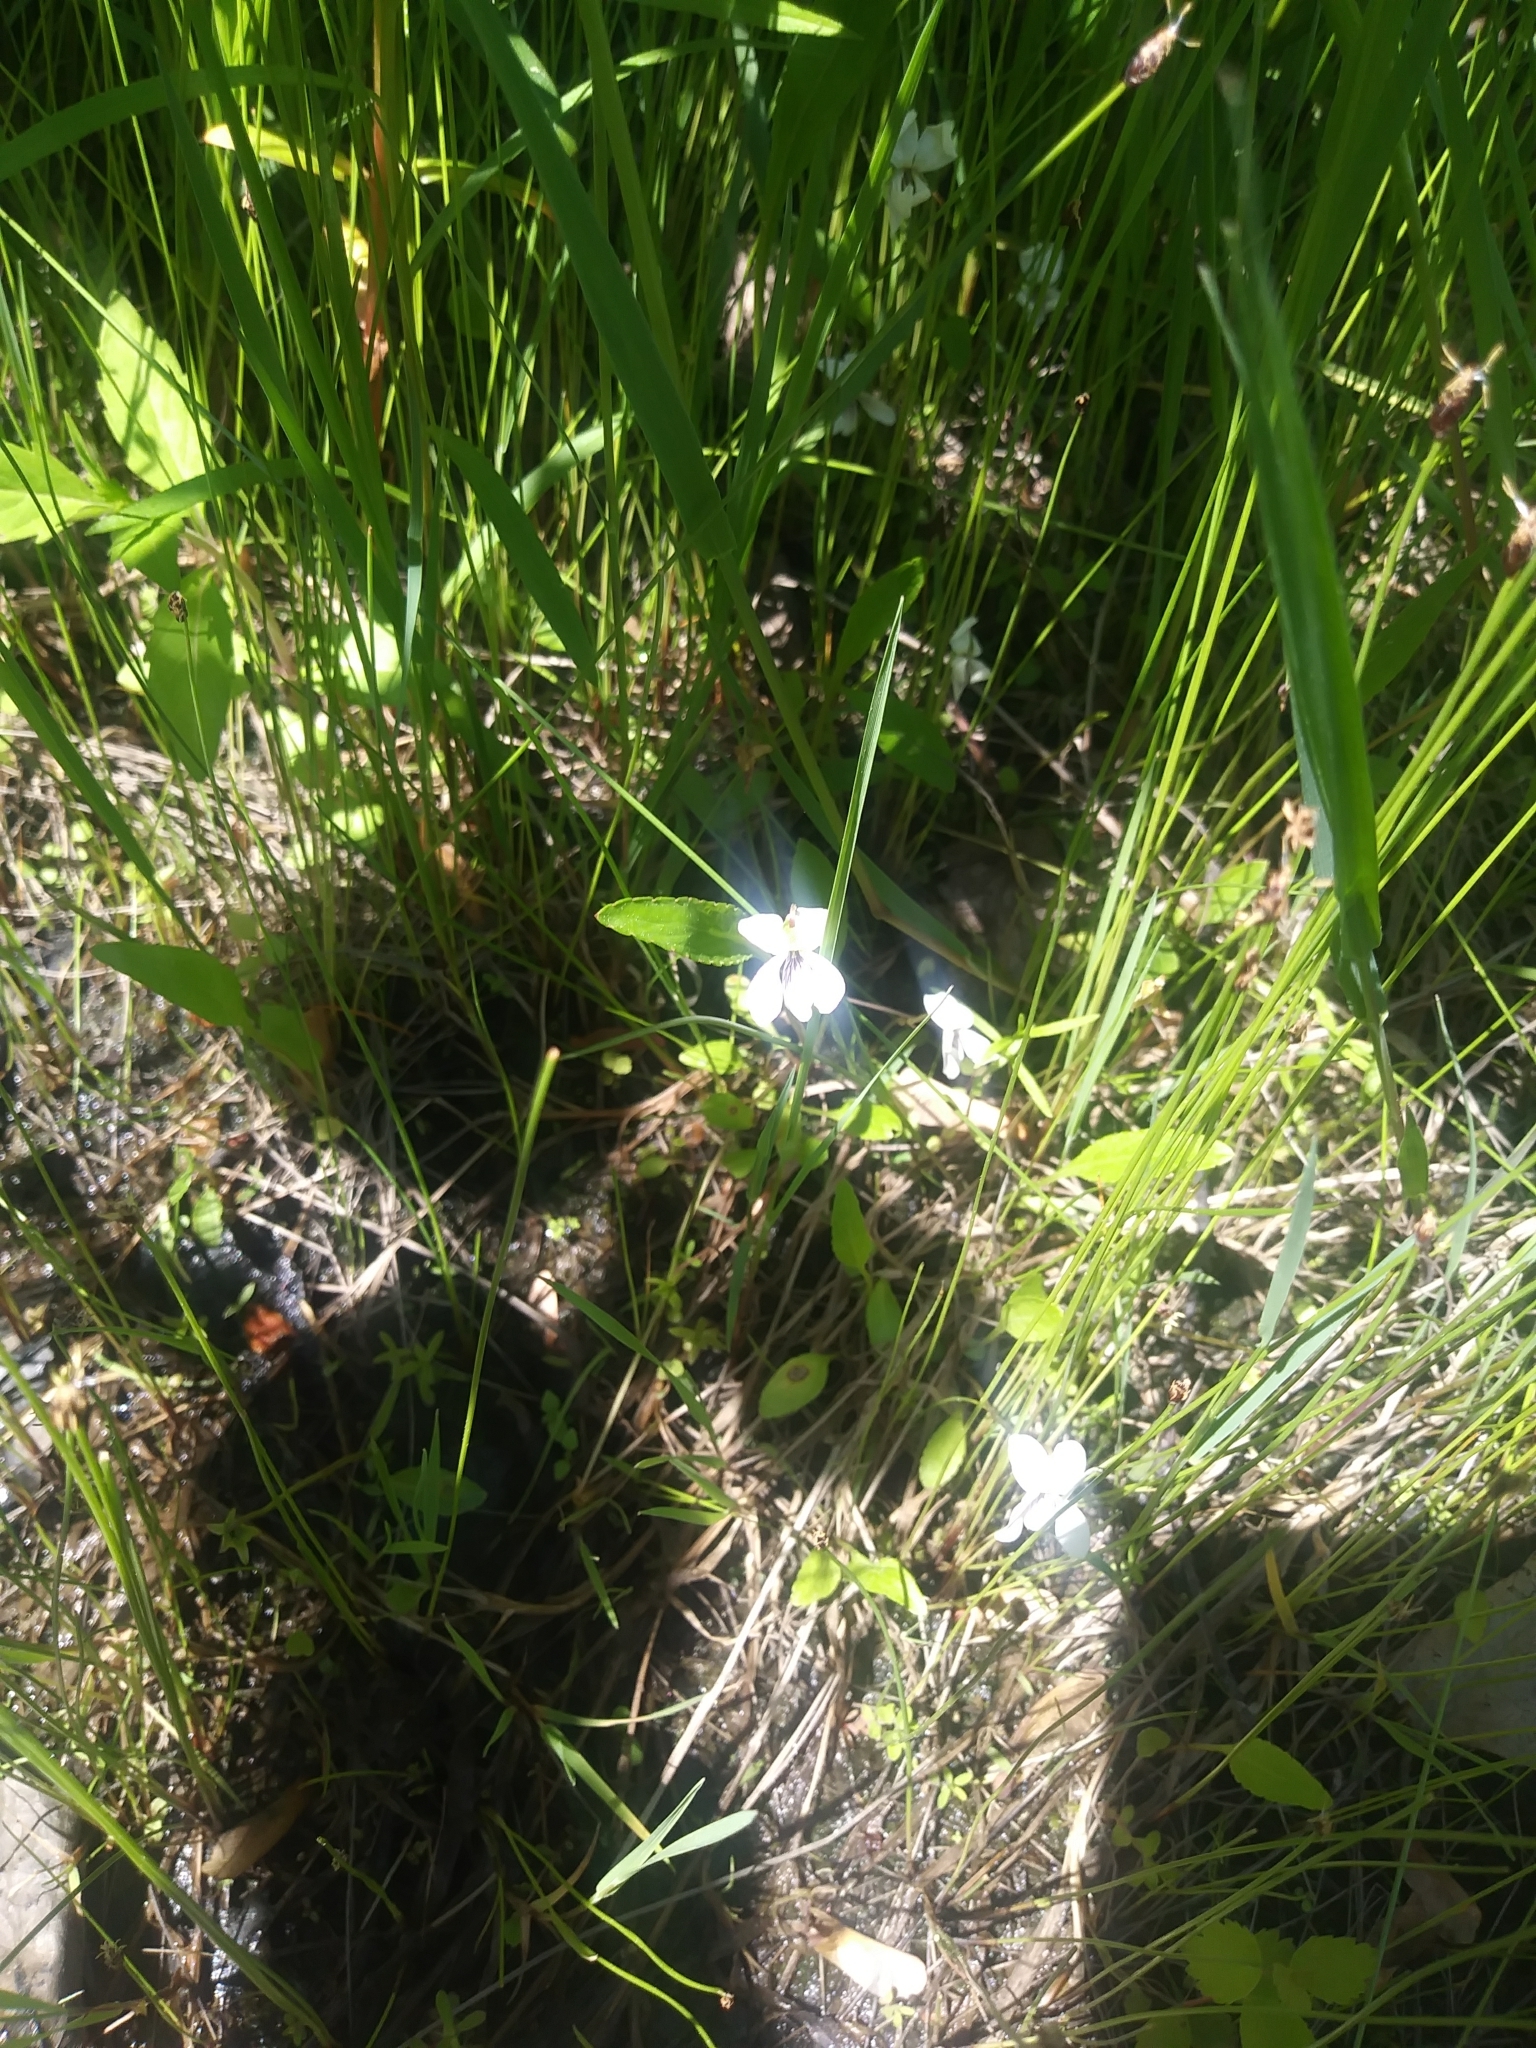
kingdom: Plantae
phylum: Tracheophyta
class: Magnoliopsida
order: Malpighiales
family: Violaceae
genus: Viola
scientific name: Viola lanceolata
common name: Bog white violet
